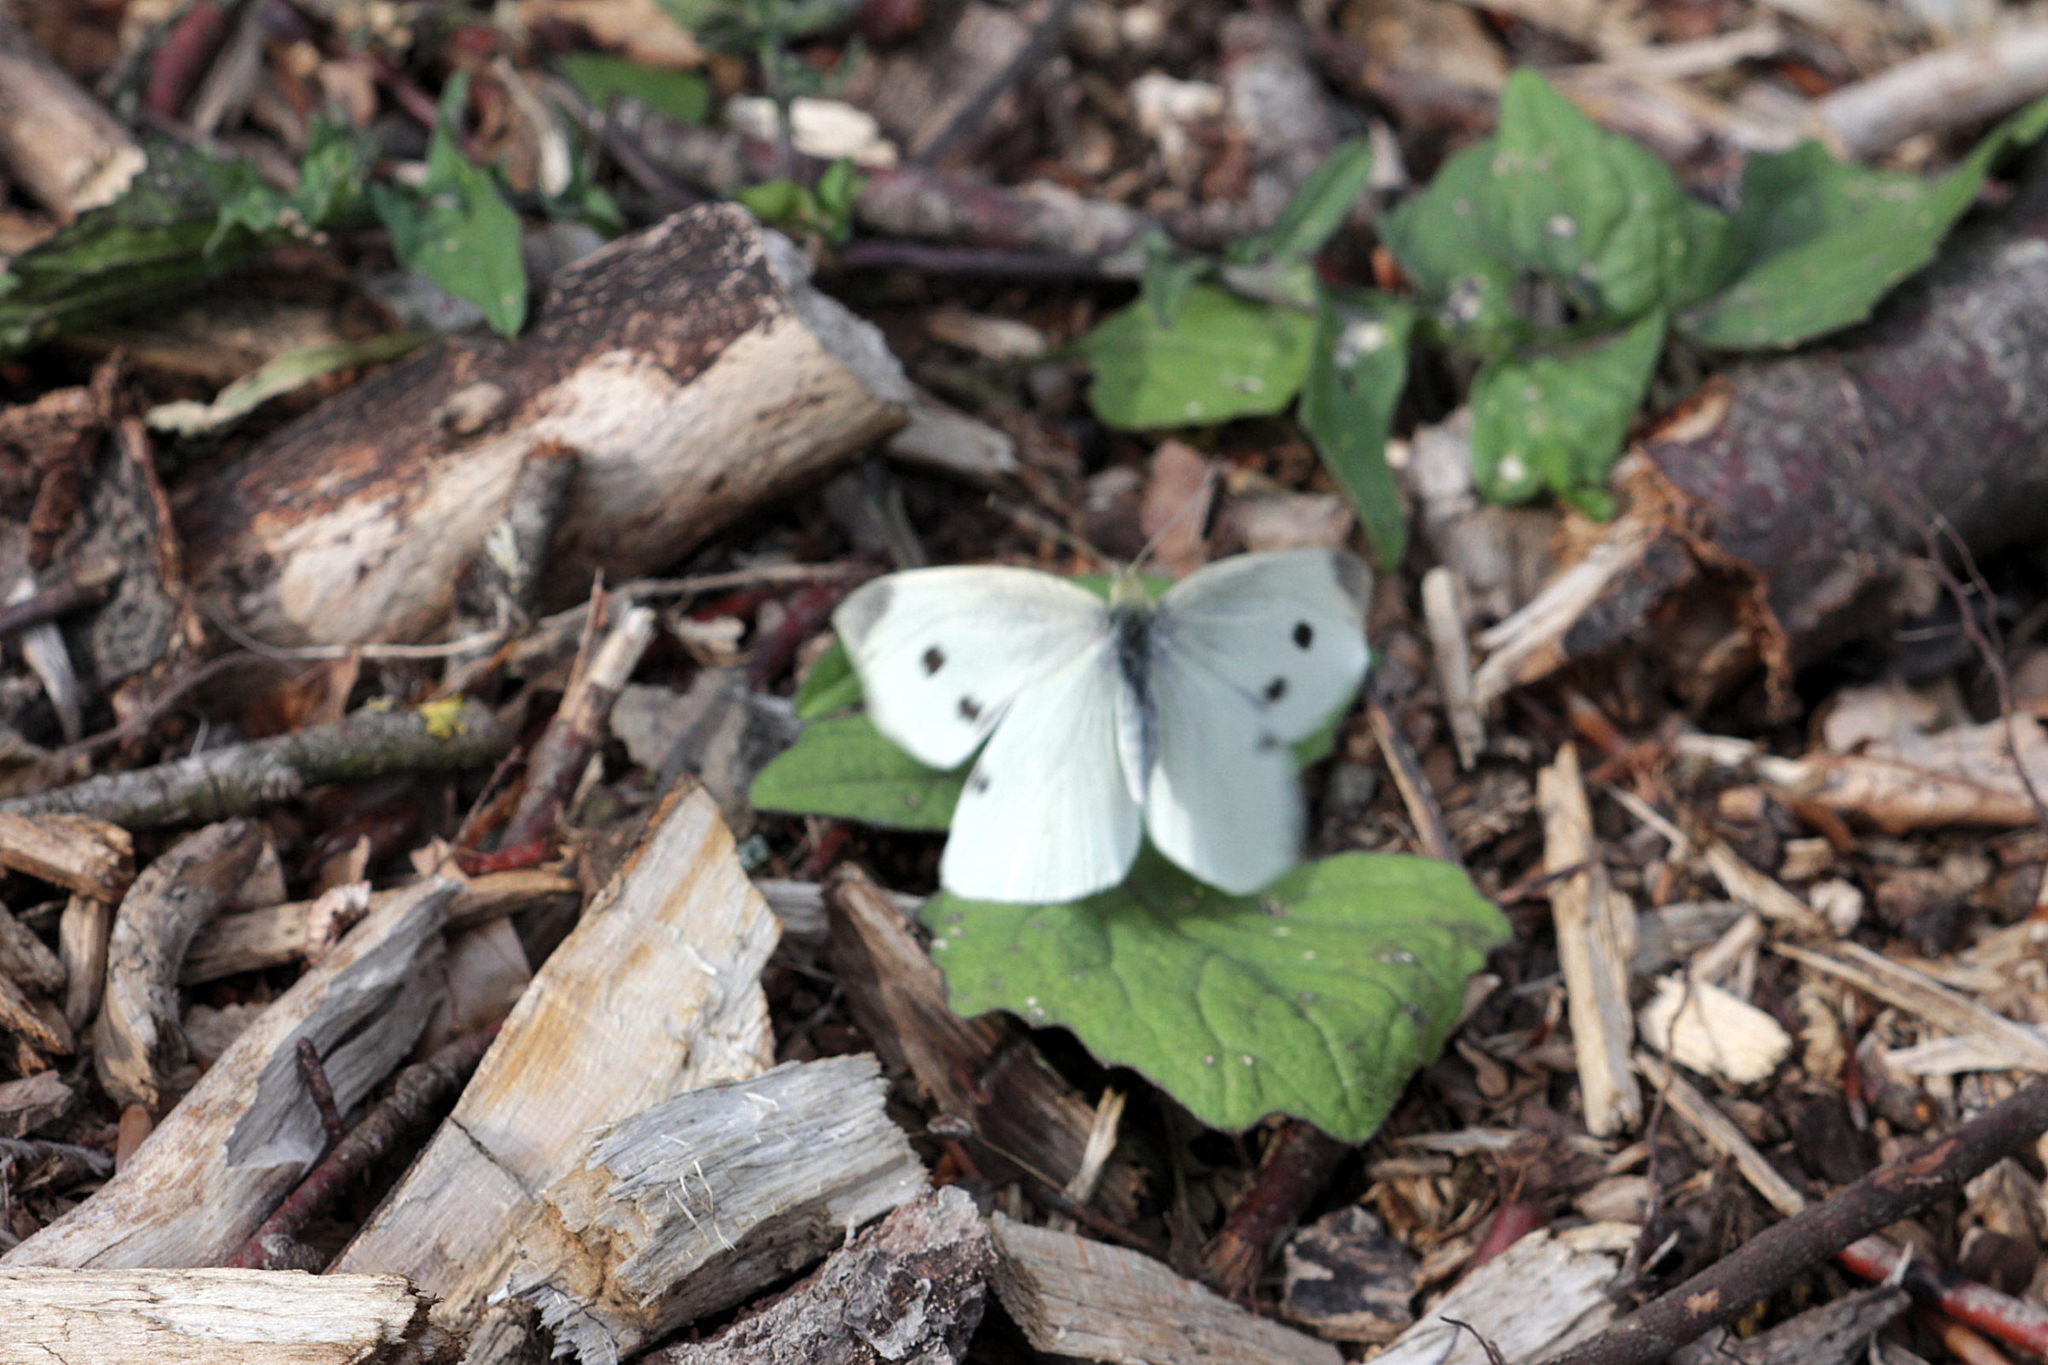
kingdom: Animalia
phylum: Arthropoda
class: Insecta
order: Lepidoptera
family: Pieridae
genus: Pieris
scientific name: Pieris rapae
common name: Small white
